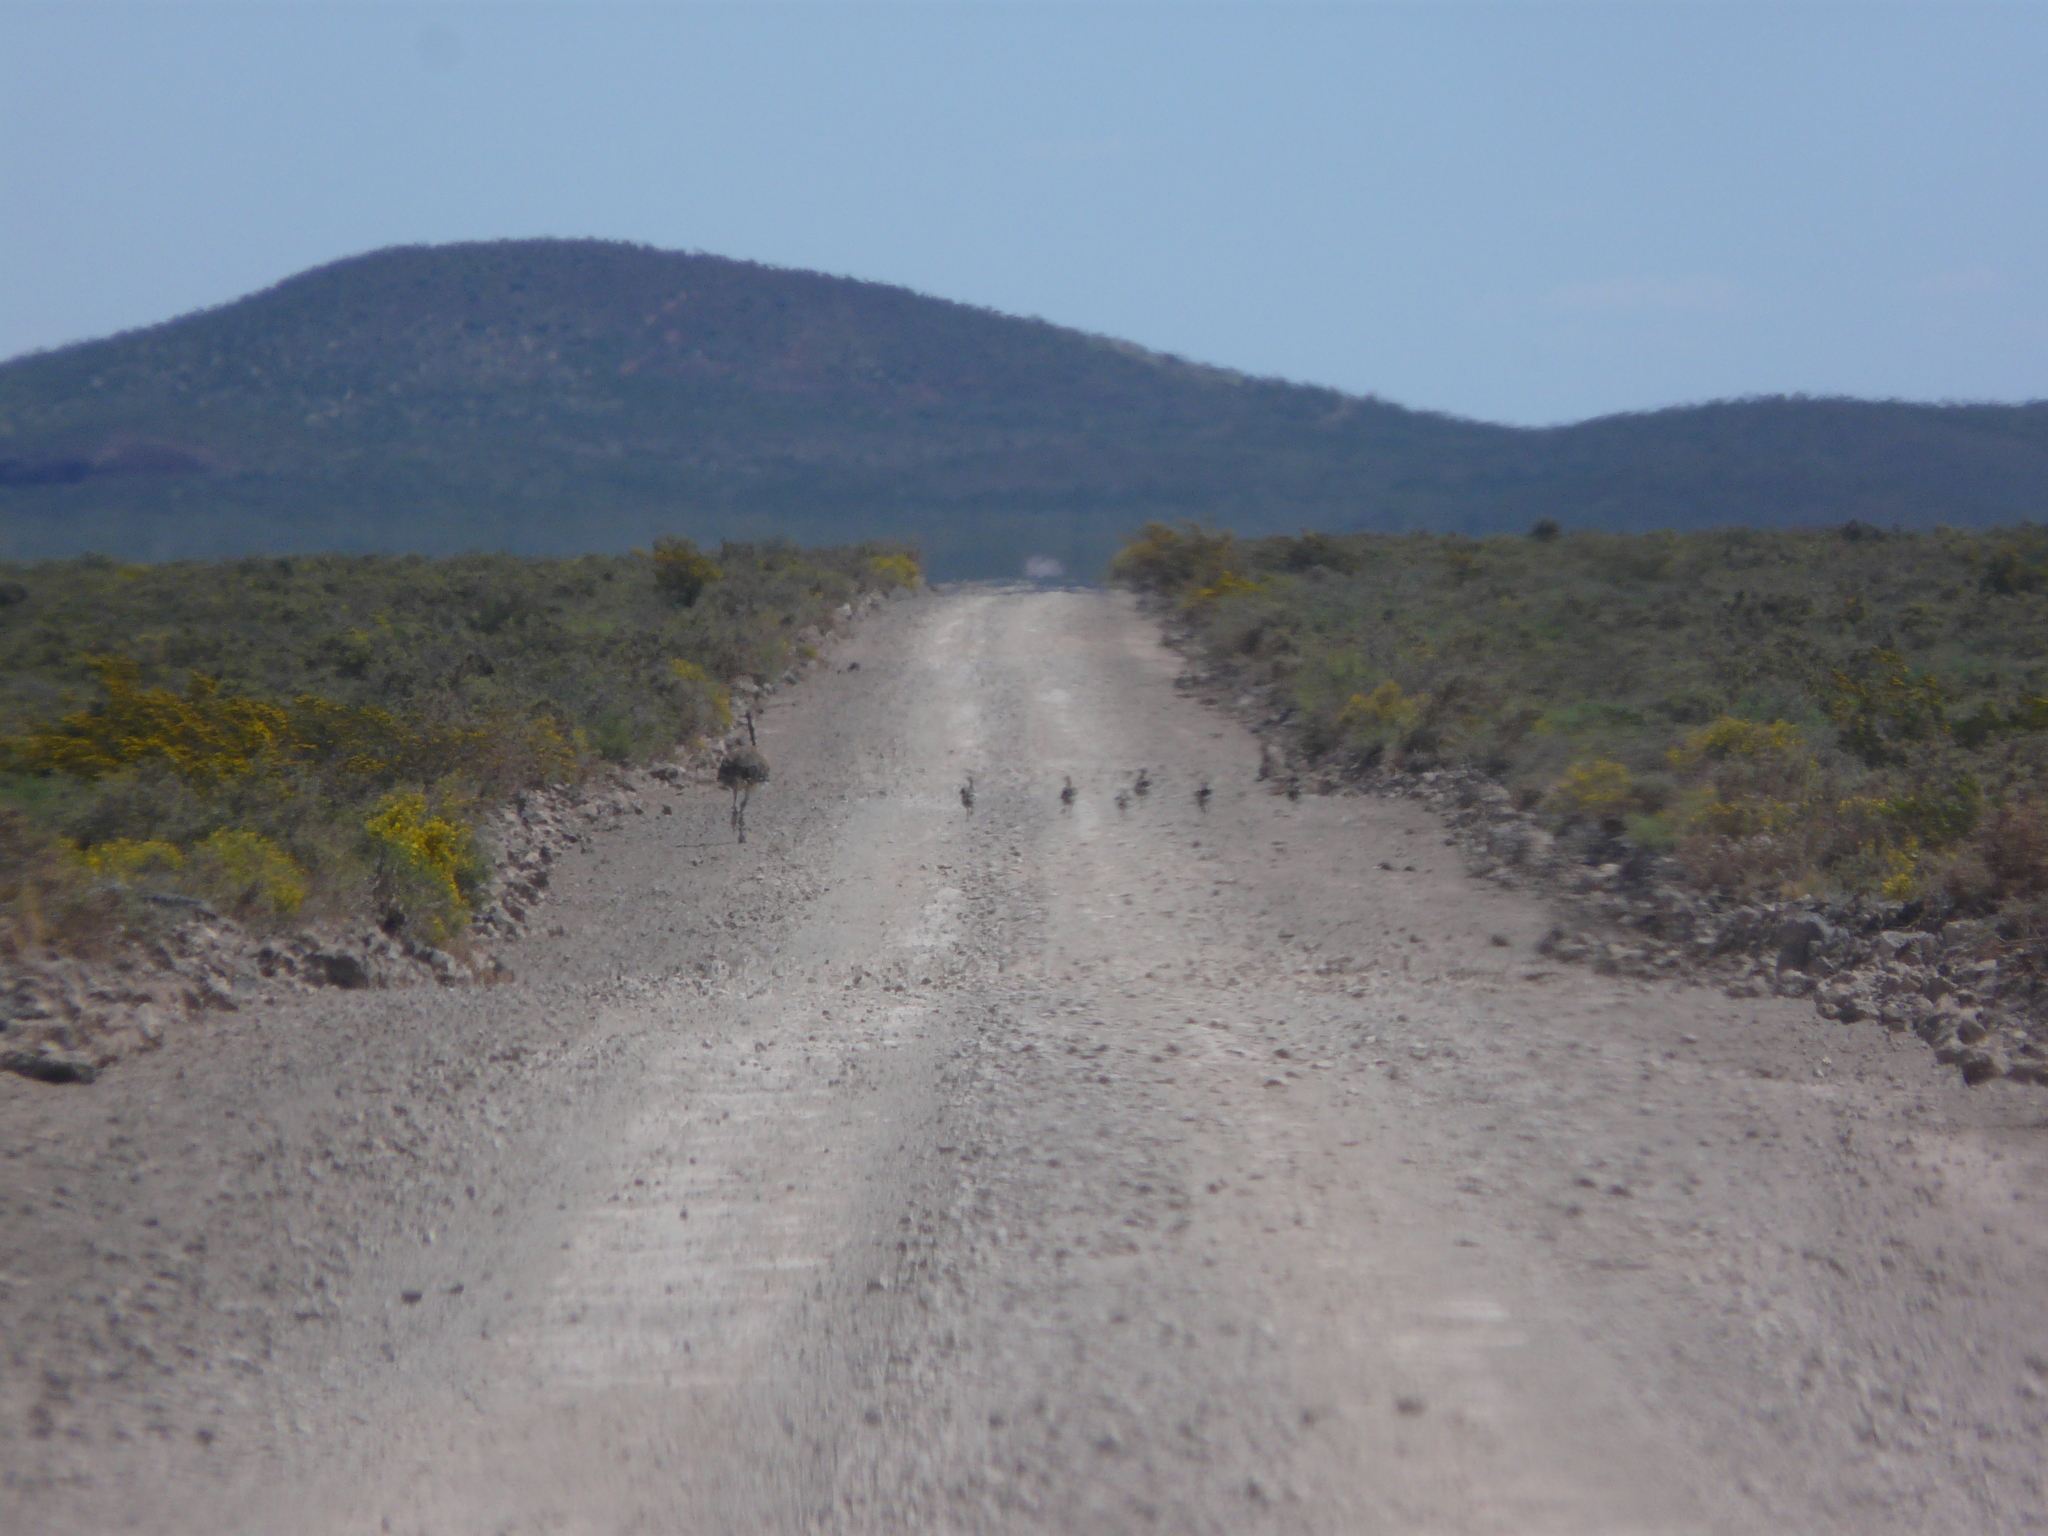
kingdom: Animalia
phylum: Chordata
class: Aves
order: Rheiformes
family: Rheidae
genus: Rhea
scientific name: Rhea pennata
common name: Lesser rhea
